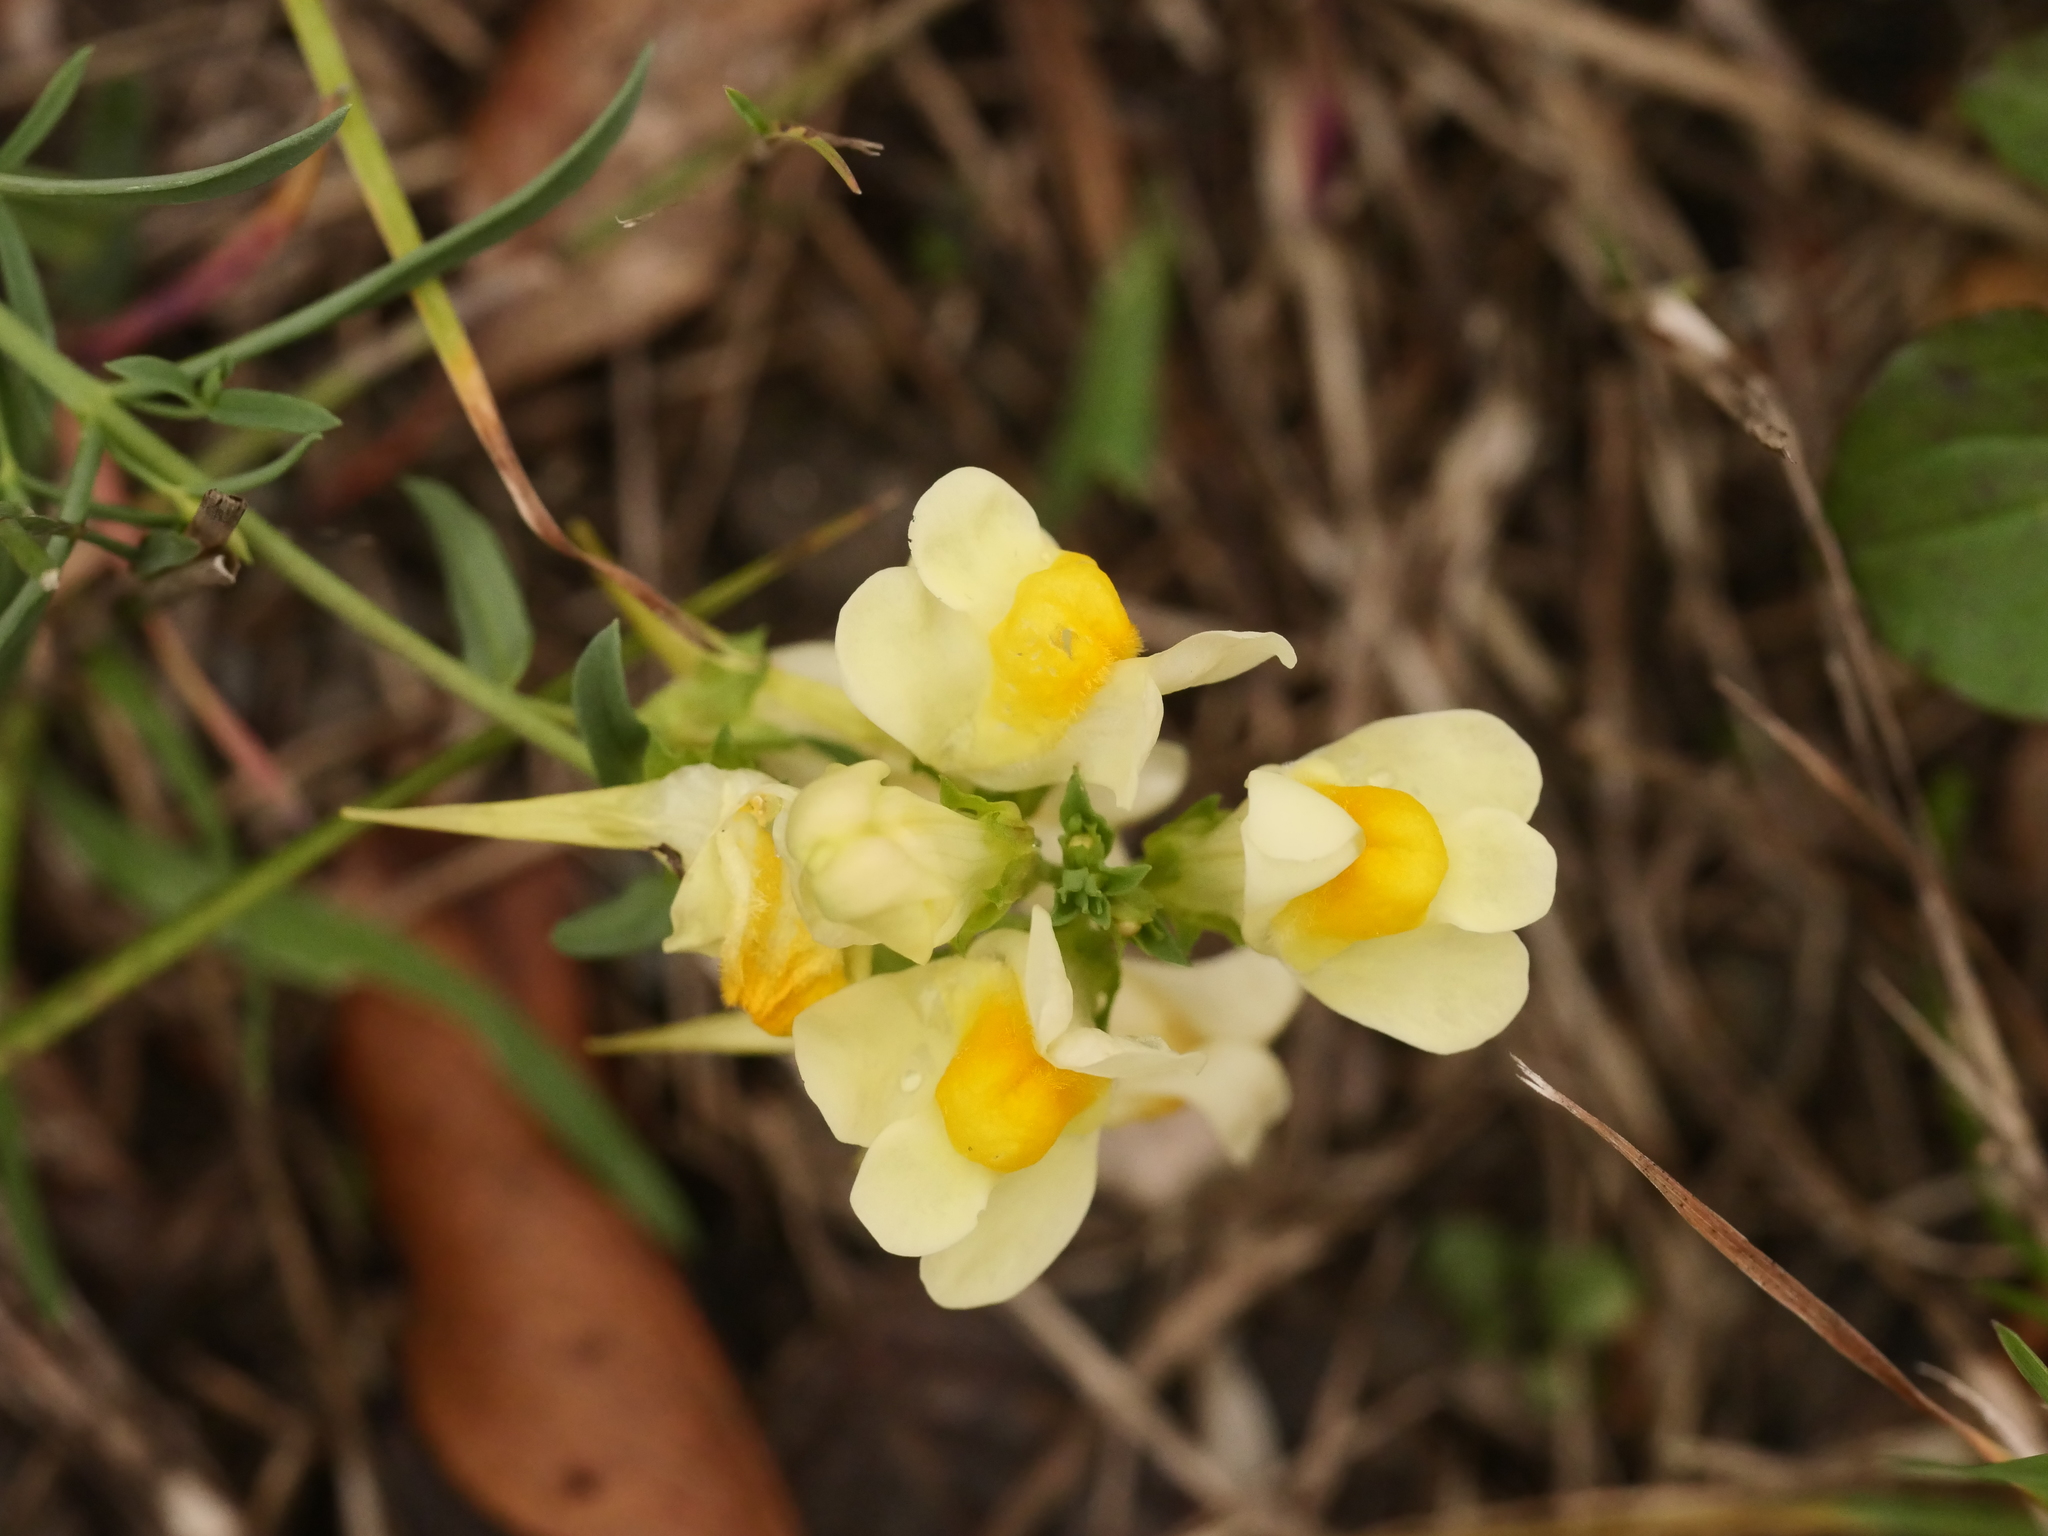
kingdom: Plantae
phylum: Tracheophyta
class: Magnoliopsida
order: Lamiales
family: Plantaginaceae
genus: Linaria
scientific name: Linaria vulgaris
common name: Butter and eggs
